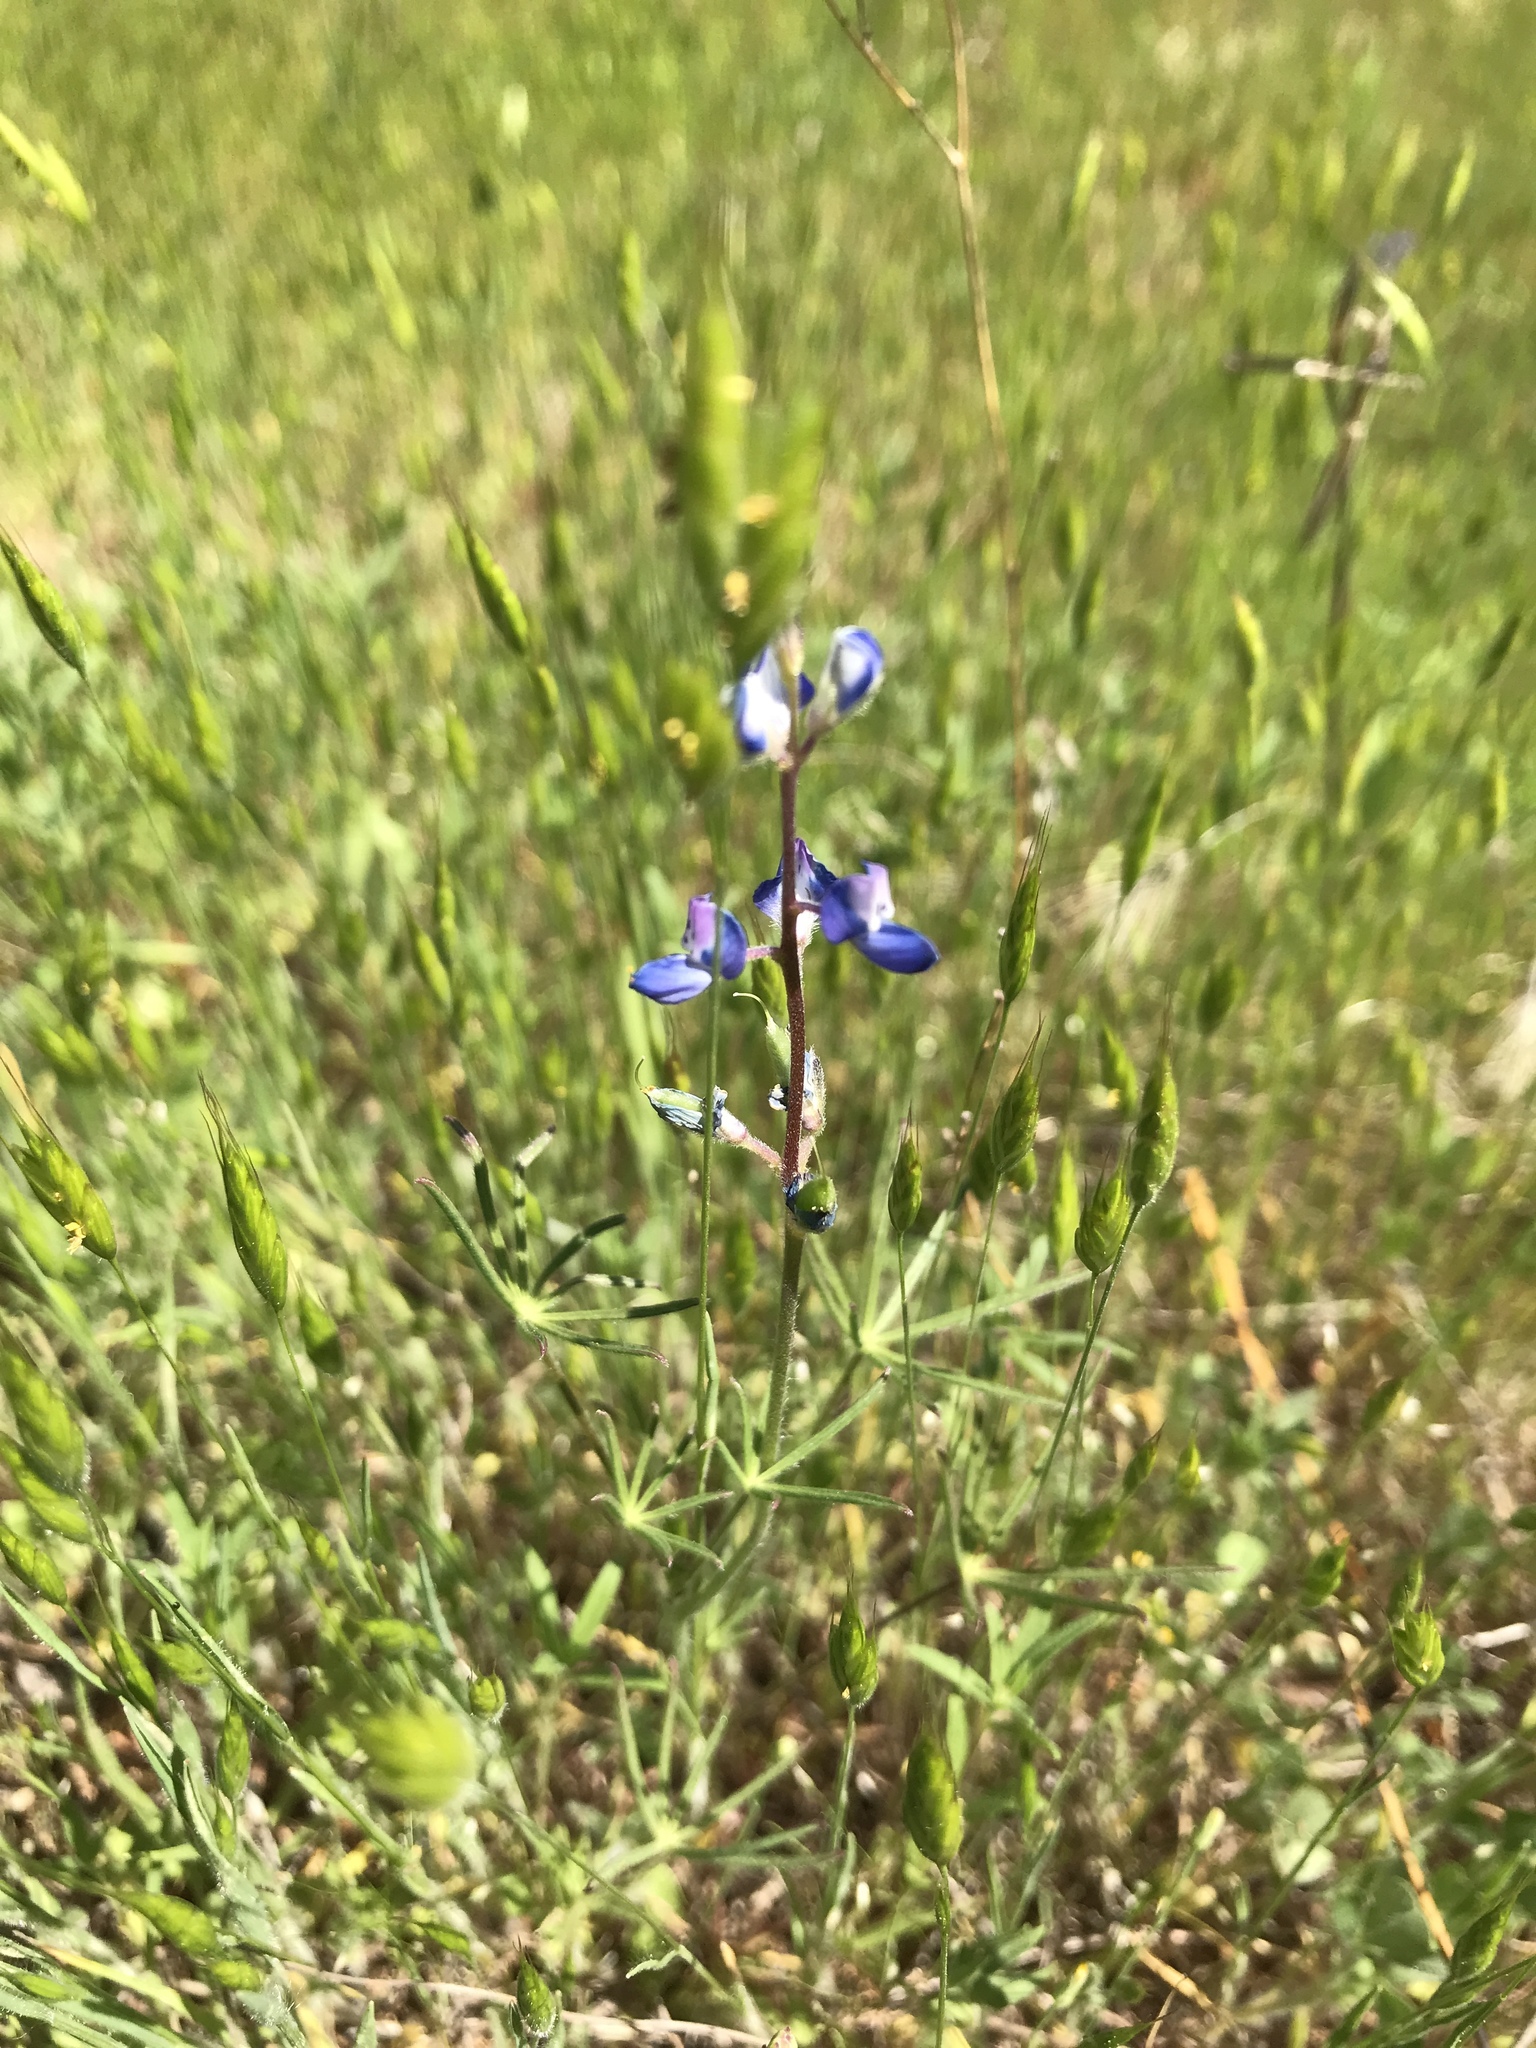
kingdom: Plantae
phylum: Tracheophyta
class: Magnoliopsida
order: Fabales
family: Fabaceae
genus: Lupinus
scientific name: Lupinus bicolor
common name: Miniature lupine
